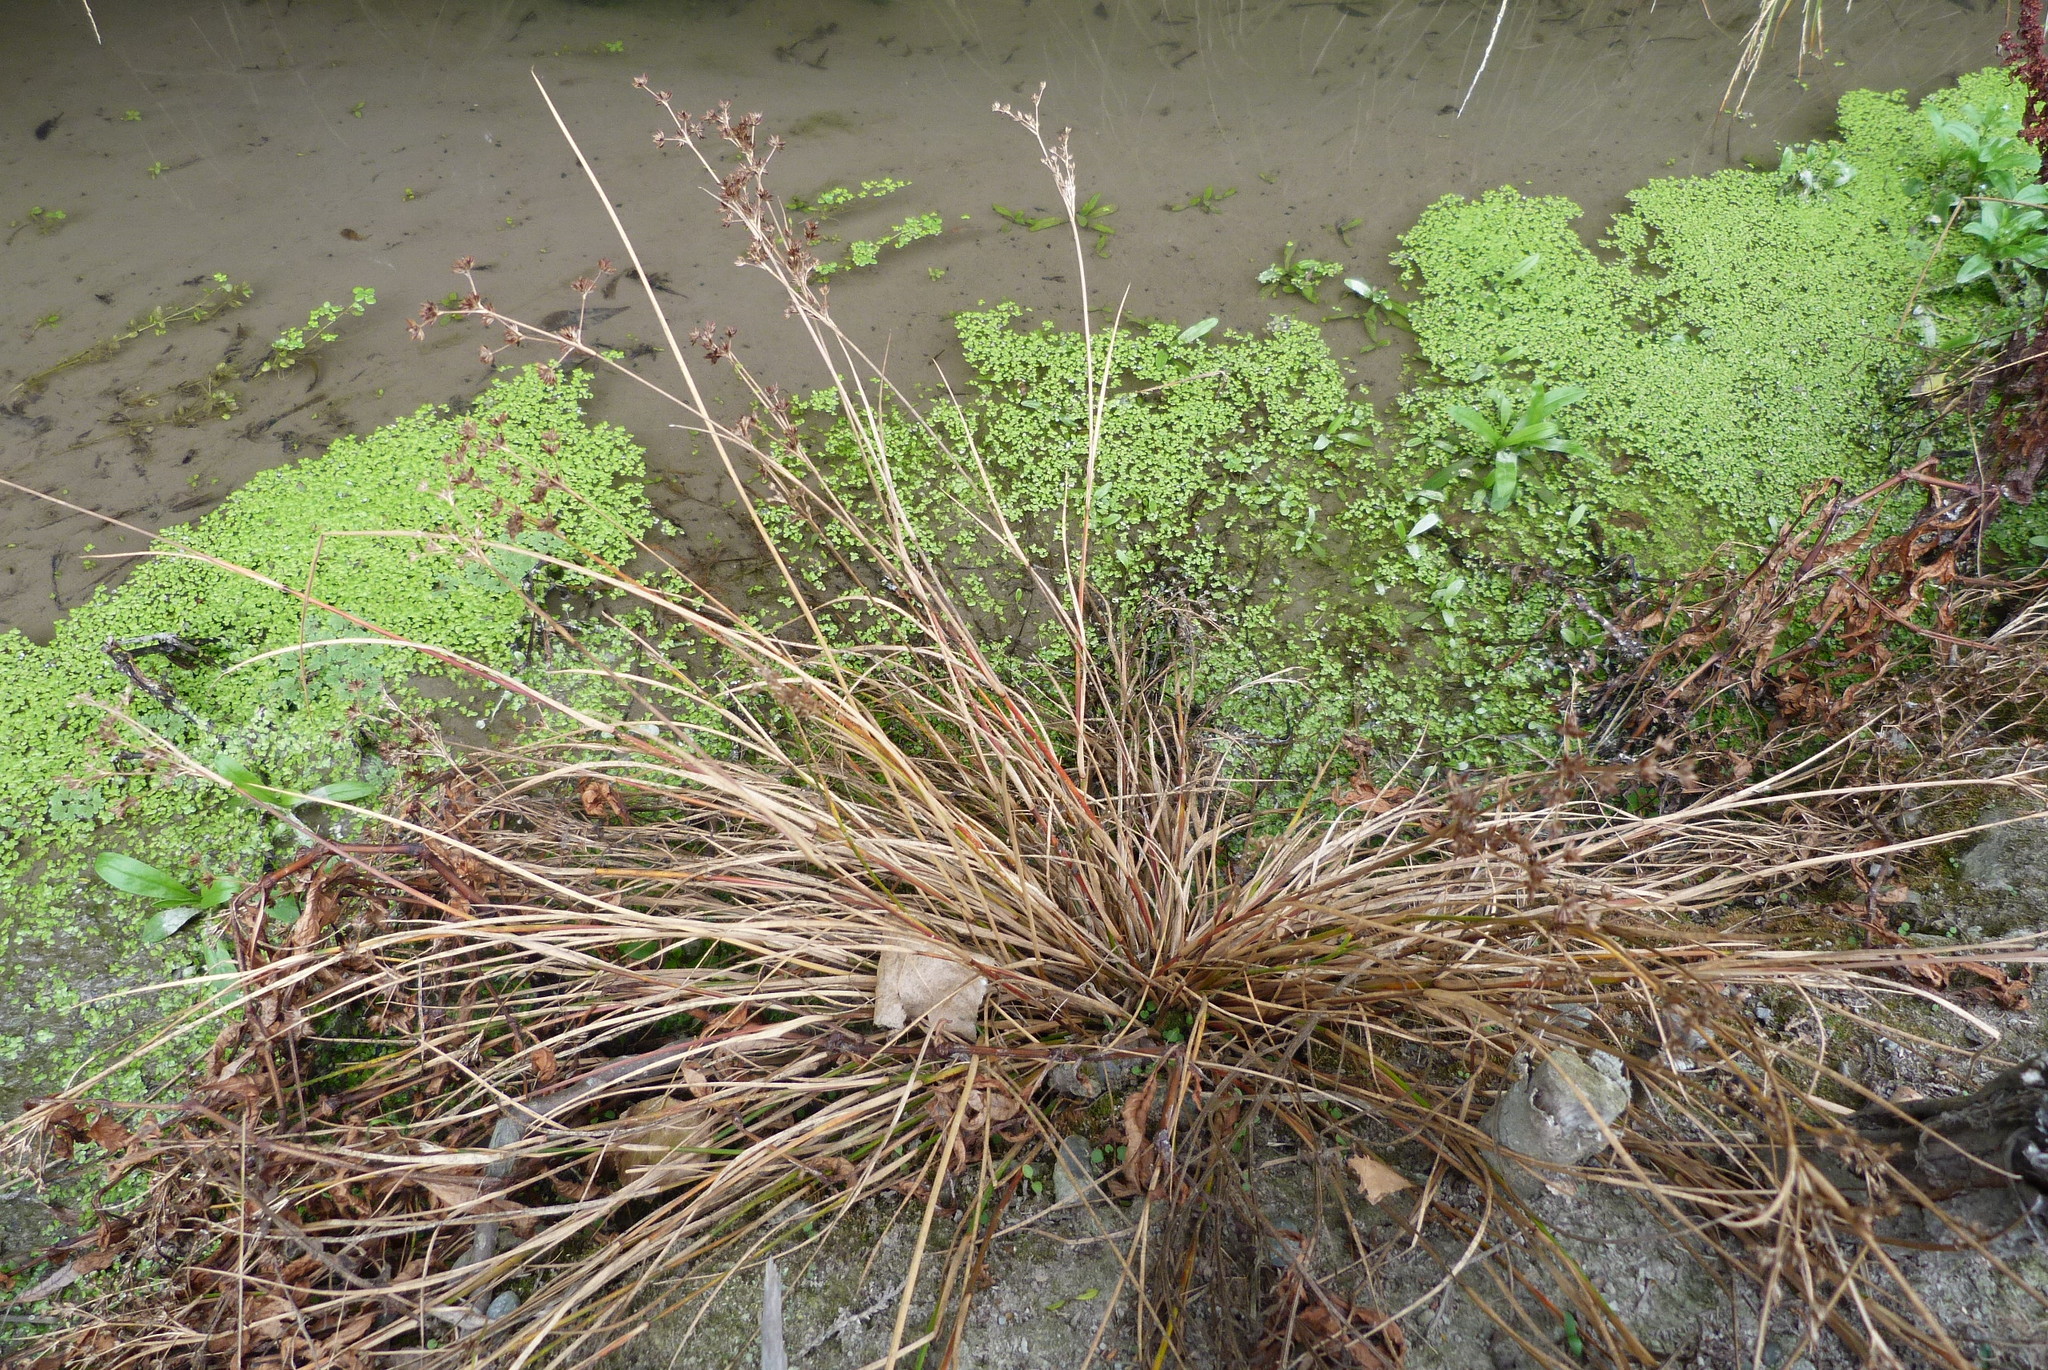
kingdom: Plantae
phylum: Tracheophyta
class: Liliopsida
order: Poales
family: Juncaceae
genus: Juncus
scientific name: Juncus planifolius
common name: Broadleaf rush
